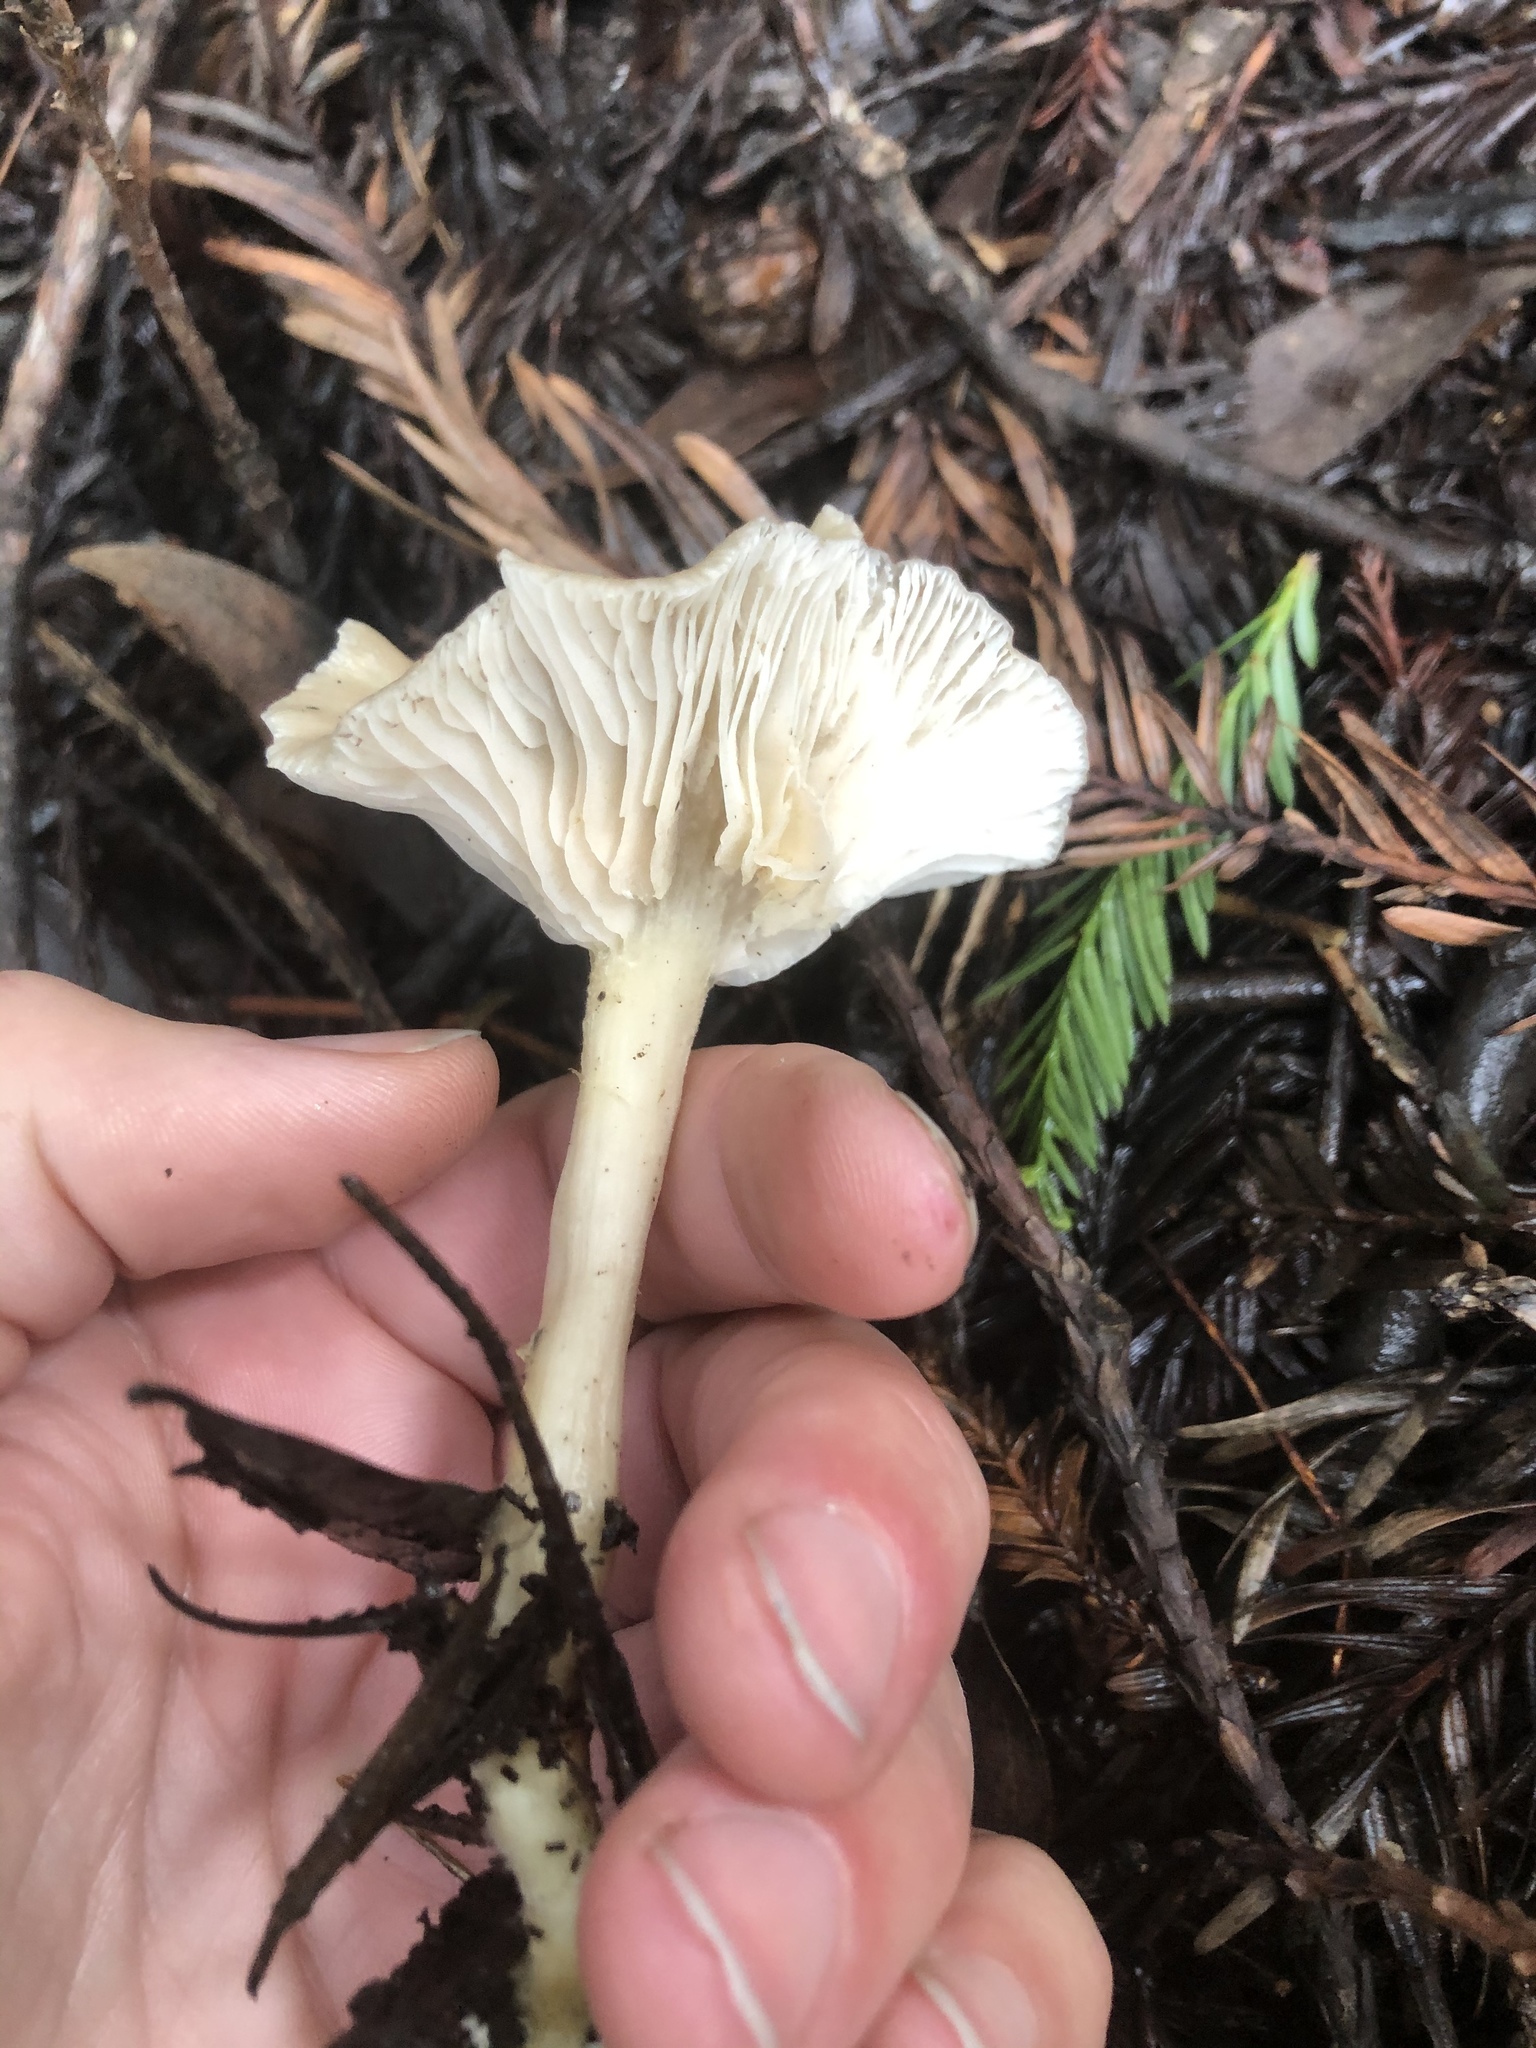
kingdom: Fungi
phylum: Basidiomycota
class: Agaricomycetes
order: Agaricales
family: Tricholomataceae
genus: Clitocybe
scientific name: Clitocybe fragrans
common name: Fragrant funnel
